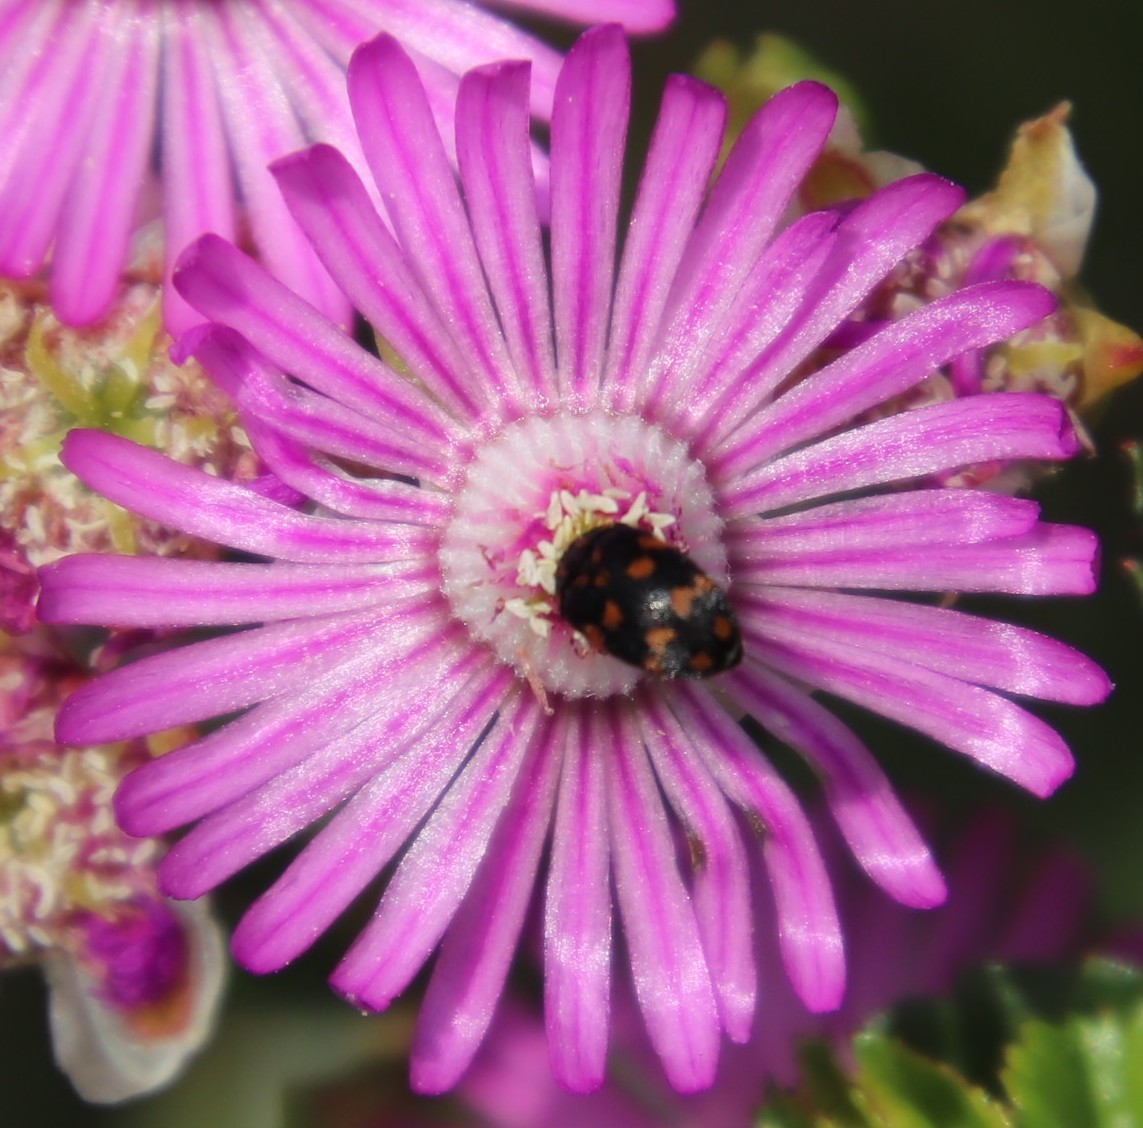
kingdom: Animalia
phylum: Arthropoda
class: Insecta
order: Coleoptera
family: Dermestidae
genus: Attagenus
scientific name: Attagenus
